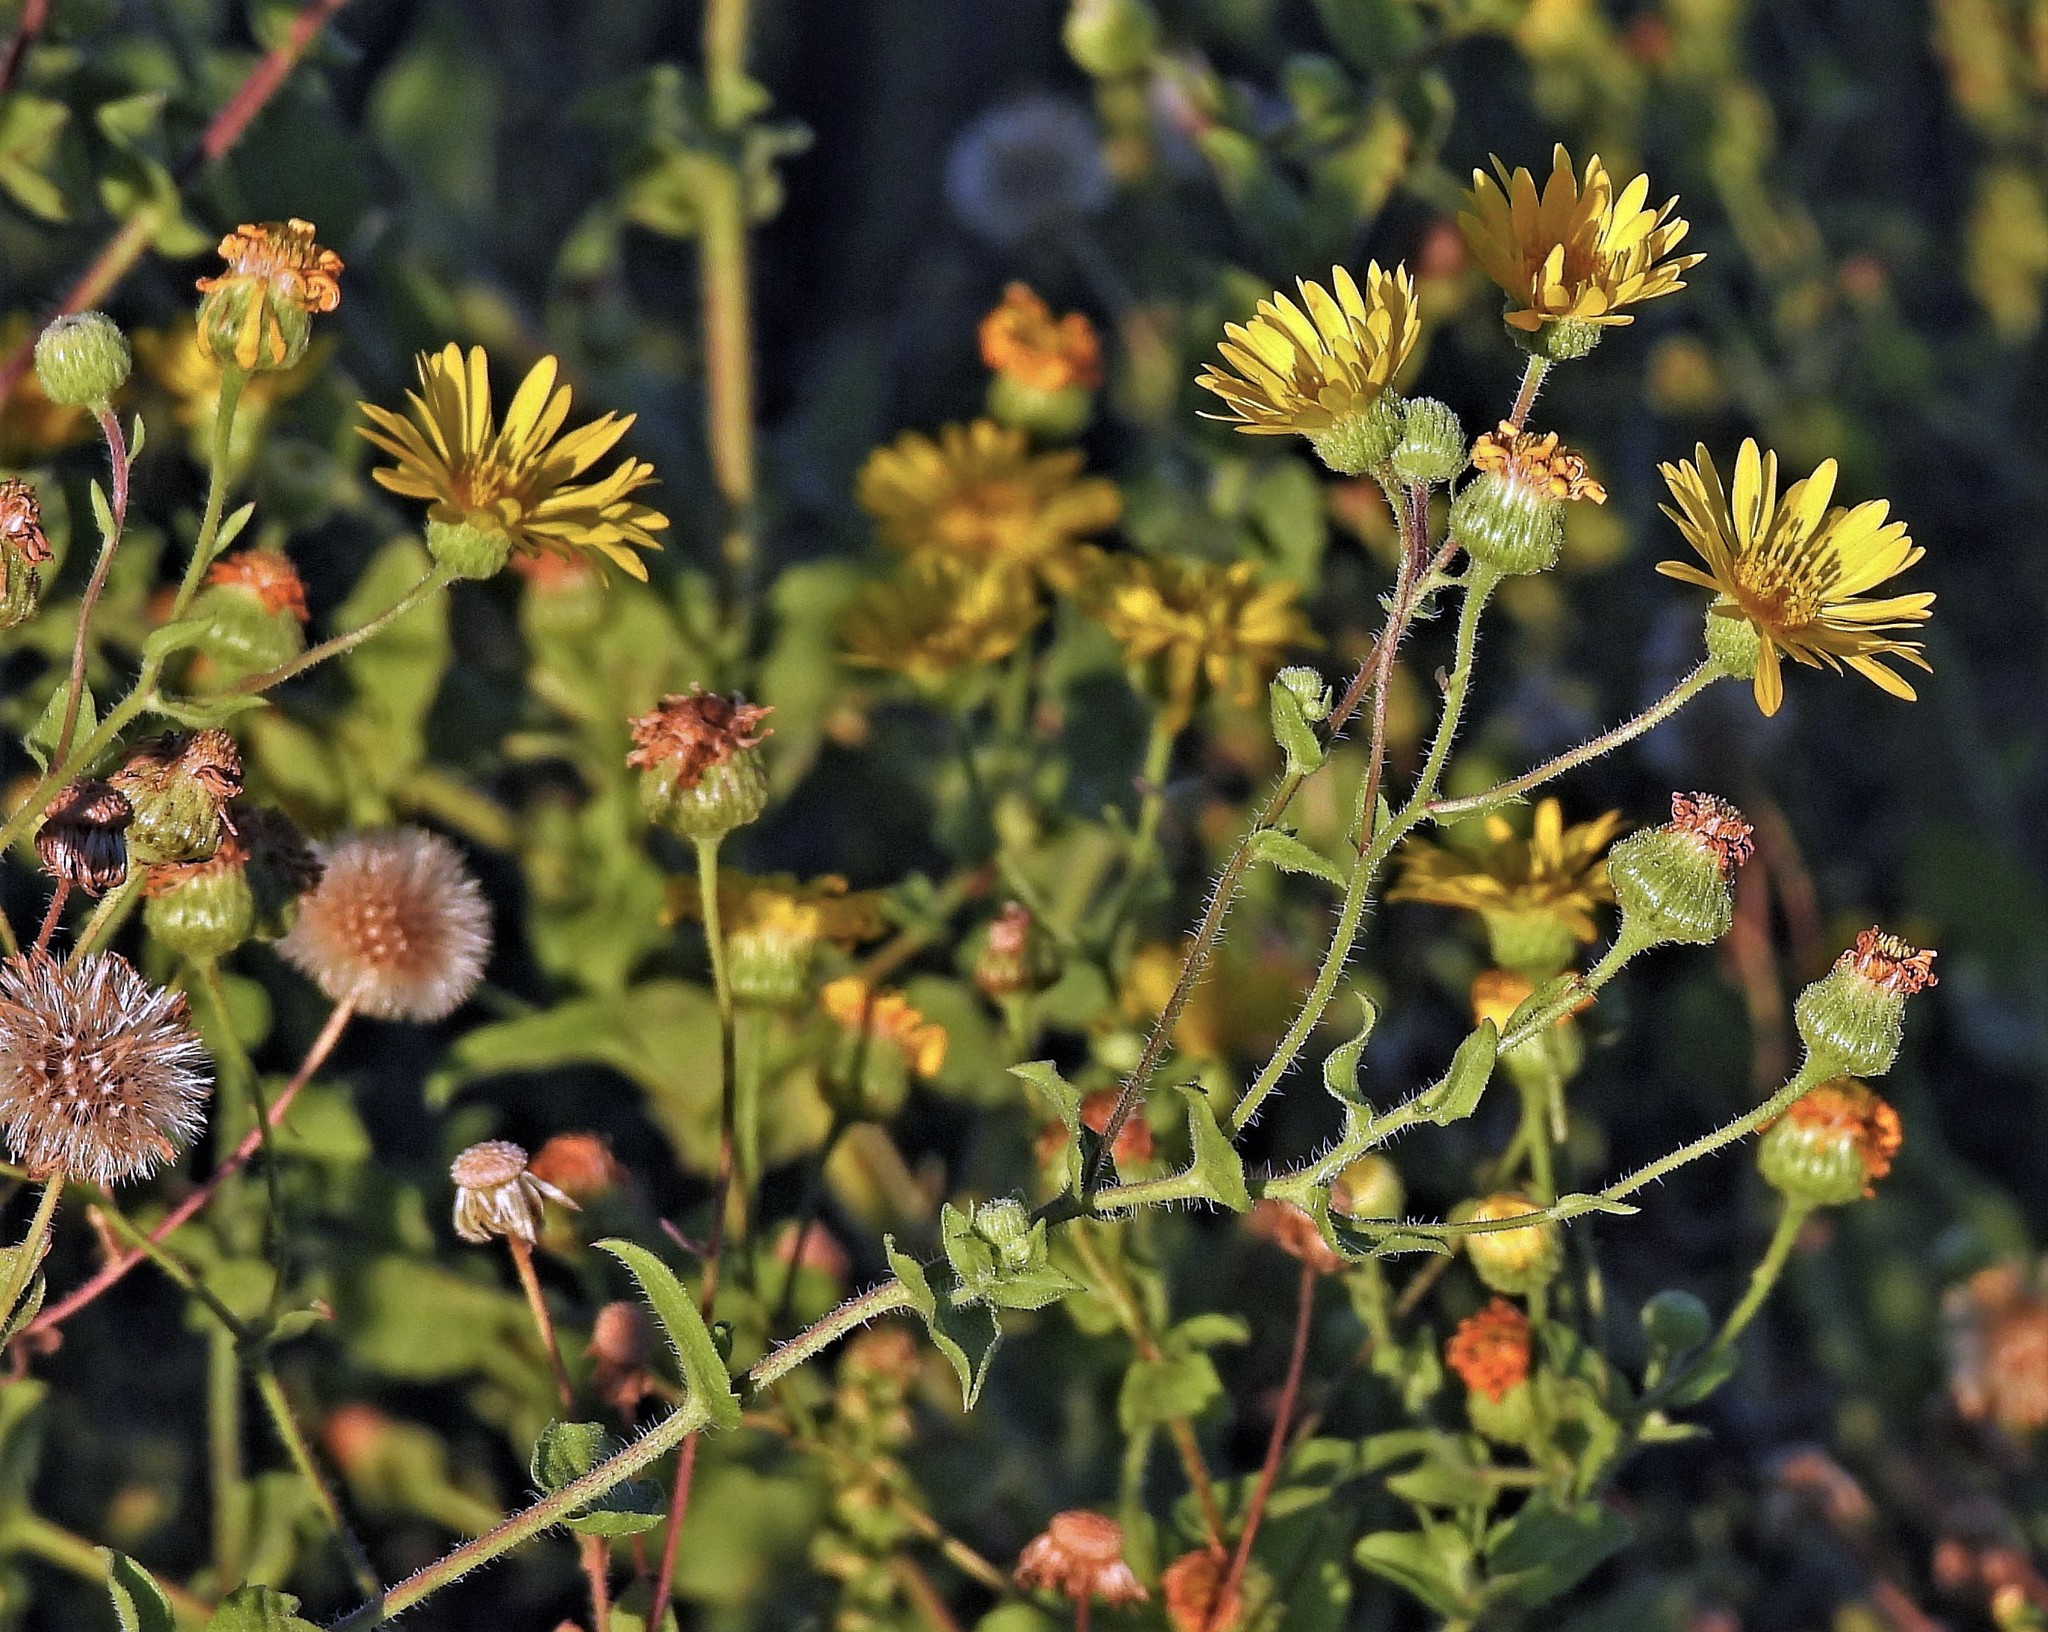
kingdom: Plantae
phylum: Tracheophyta
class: Magnoliopsida
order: Asterales
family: Asteraceae
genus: Heterotheca
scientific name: Heterotheca subaxillaris
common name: Camphorweed
